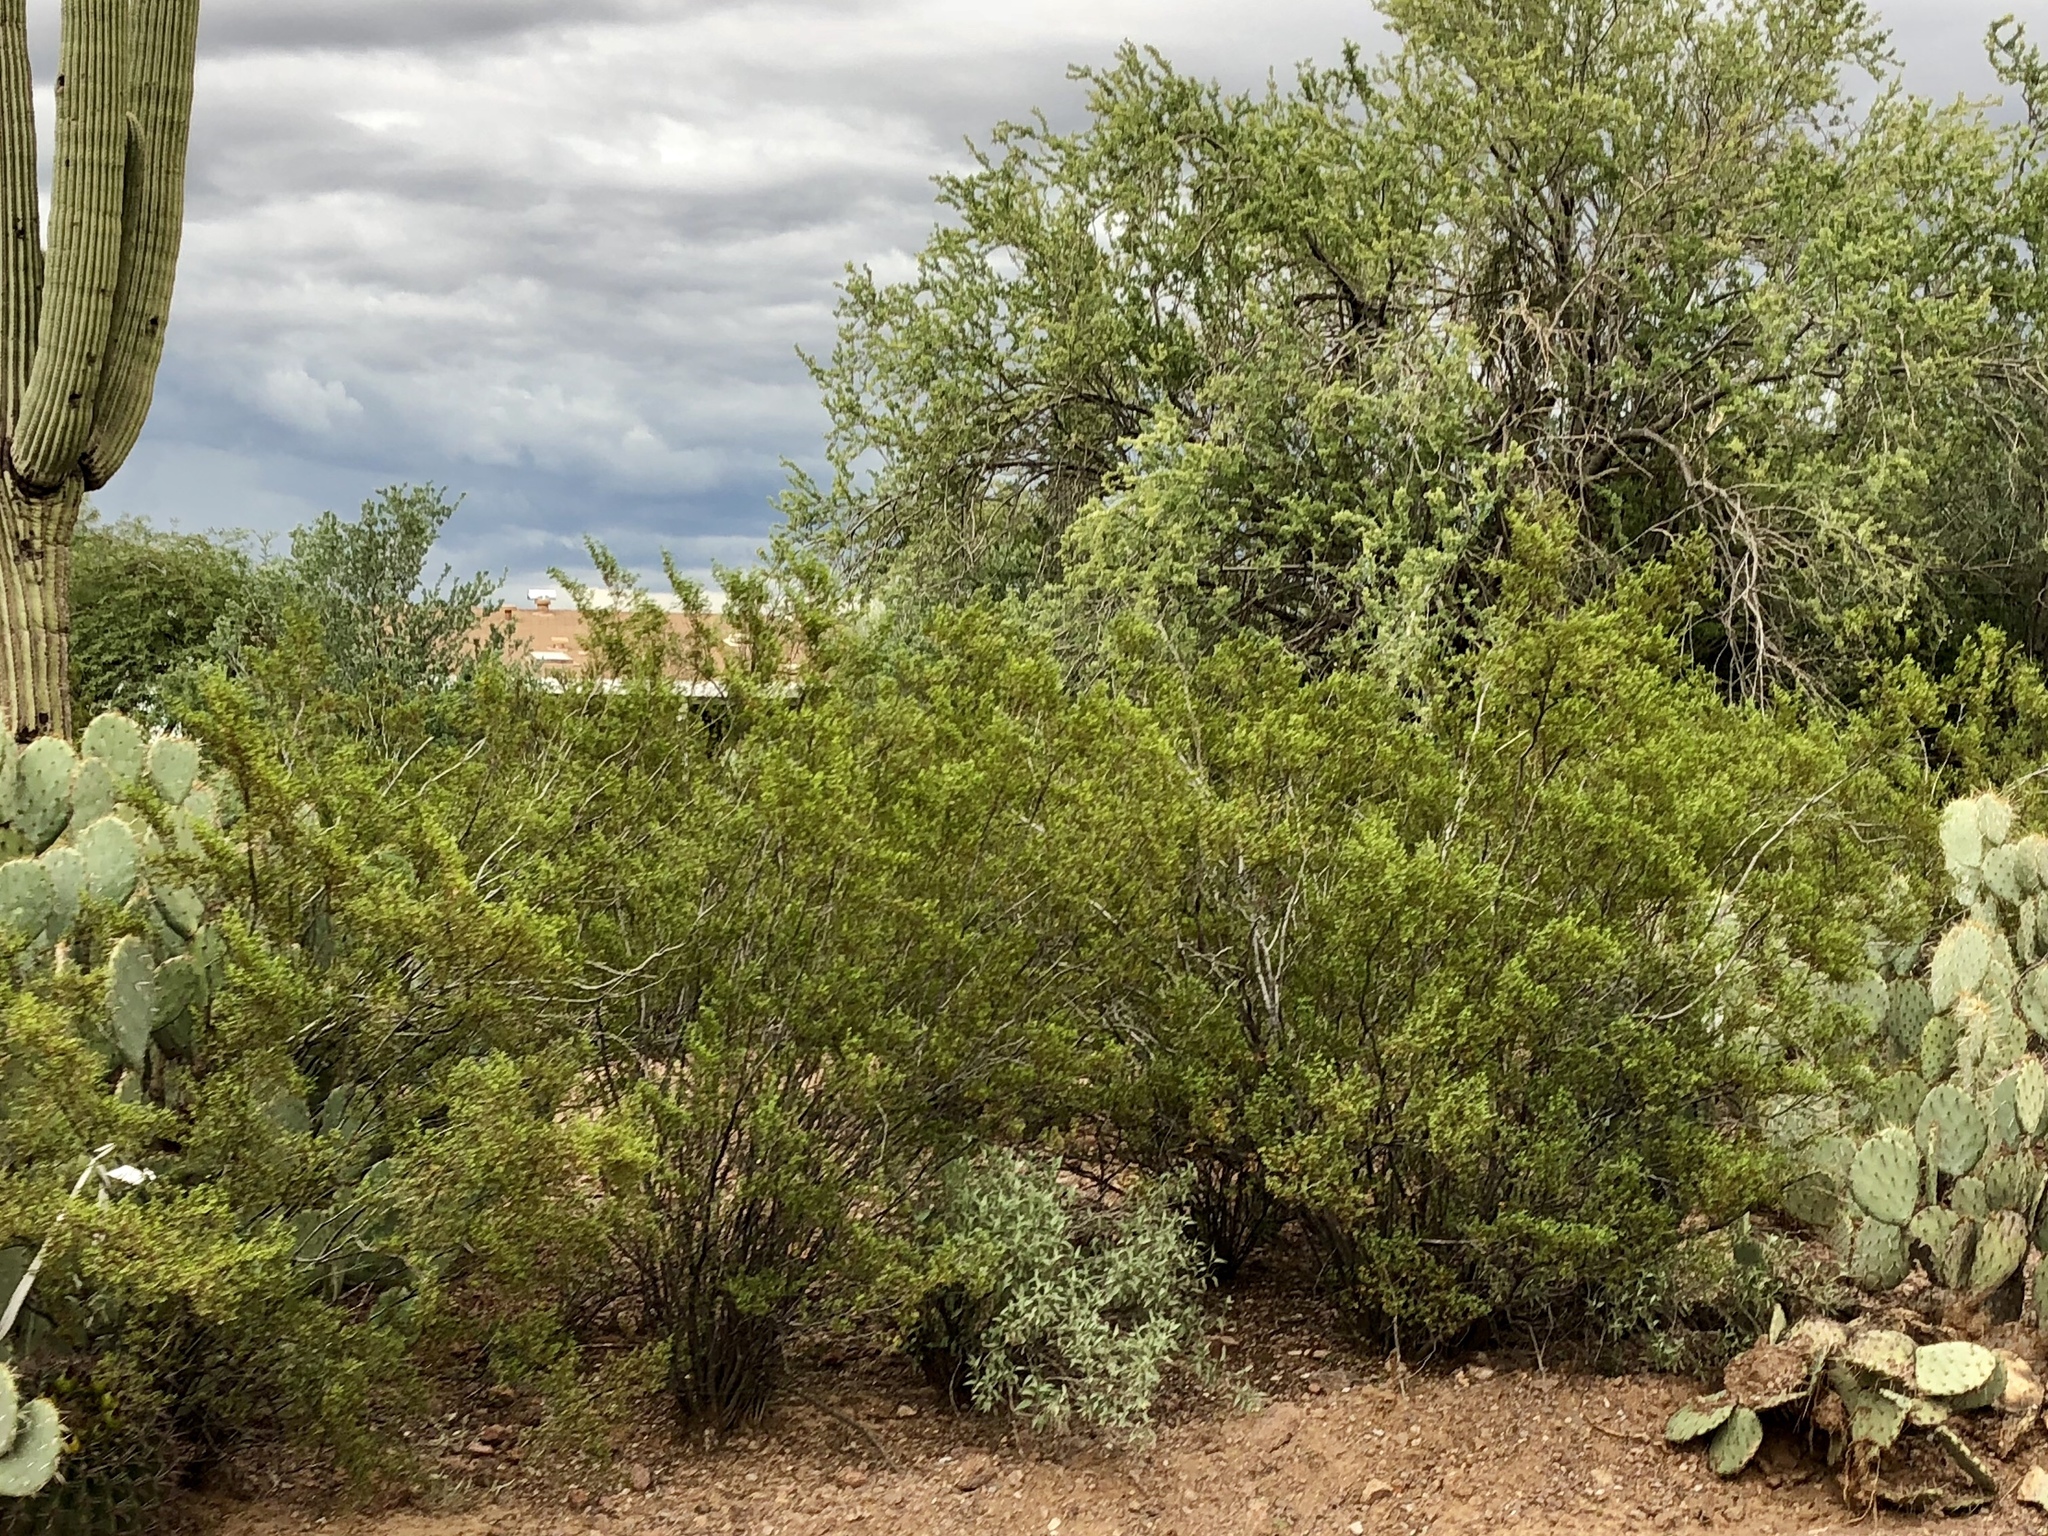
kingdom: Plantae
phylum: Tracheophyta
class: Magnoliopsida
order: Zygophyllales
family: Zygophyllaceae
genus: Larrea
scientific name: Larrea tridentata
